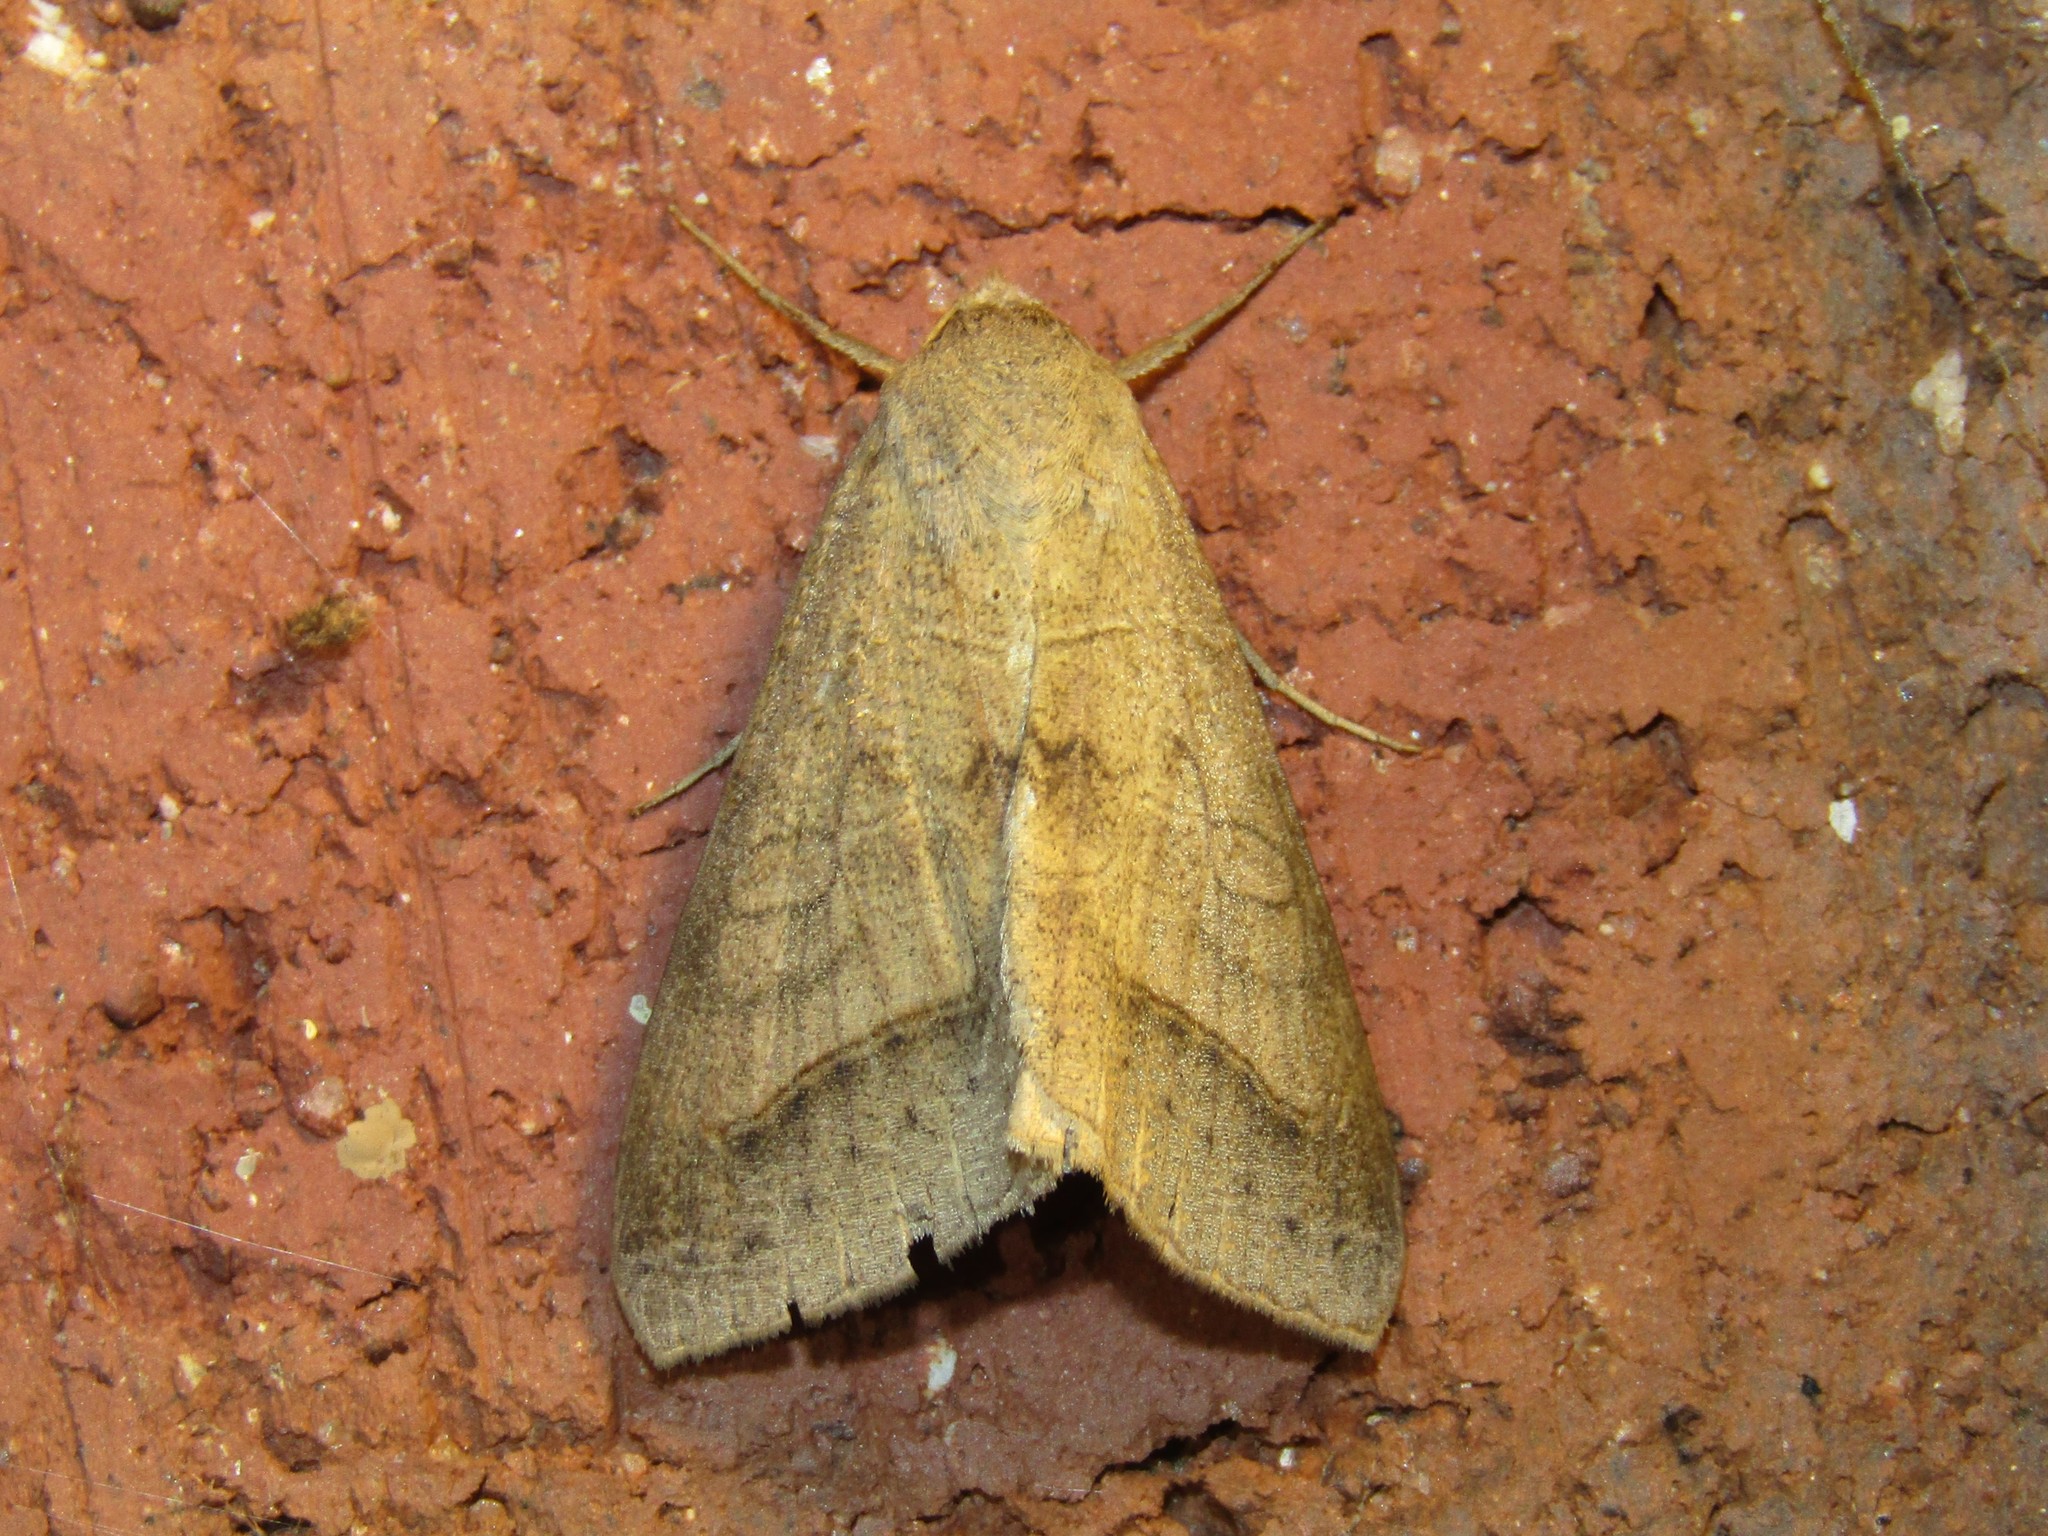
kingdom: Animalia
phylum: Arthropoda
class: Insecta
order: Lepidoptera
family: Erebidae
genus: Mocis
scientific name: Mocis marcida
